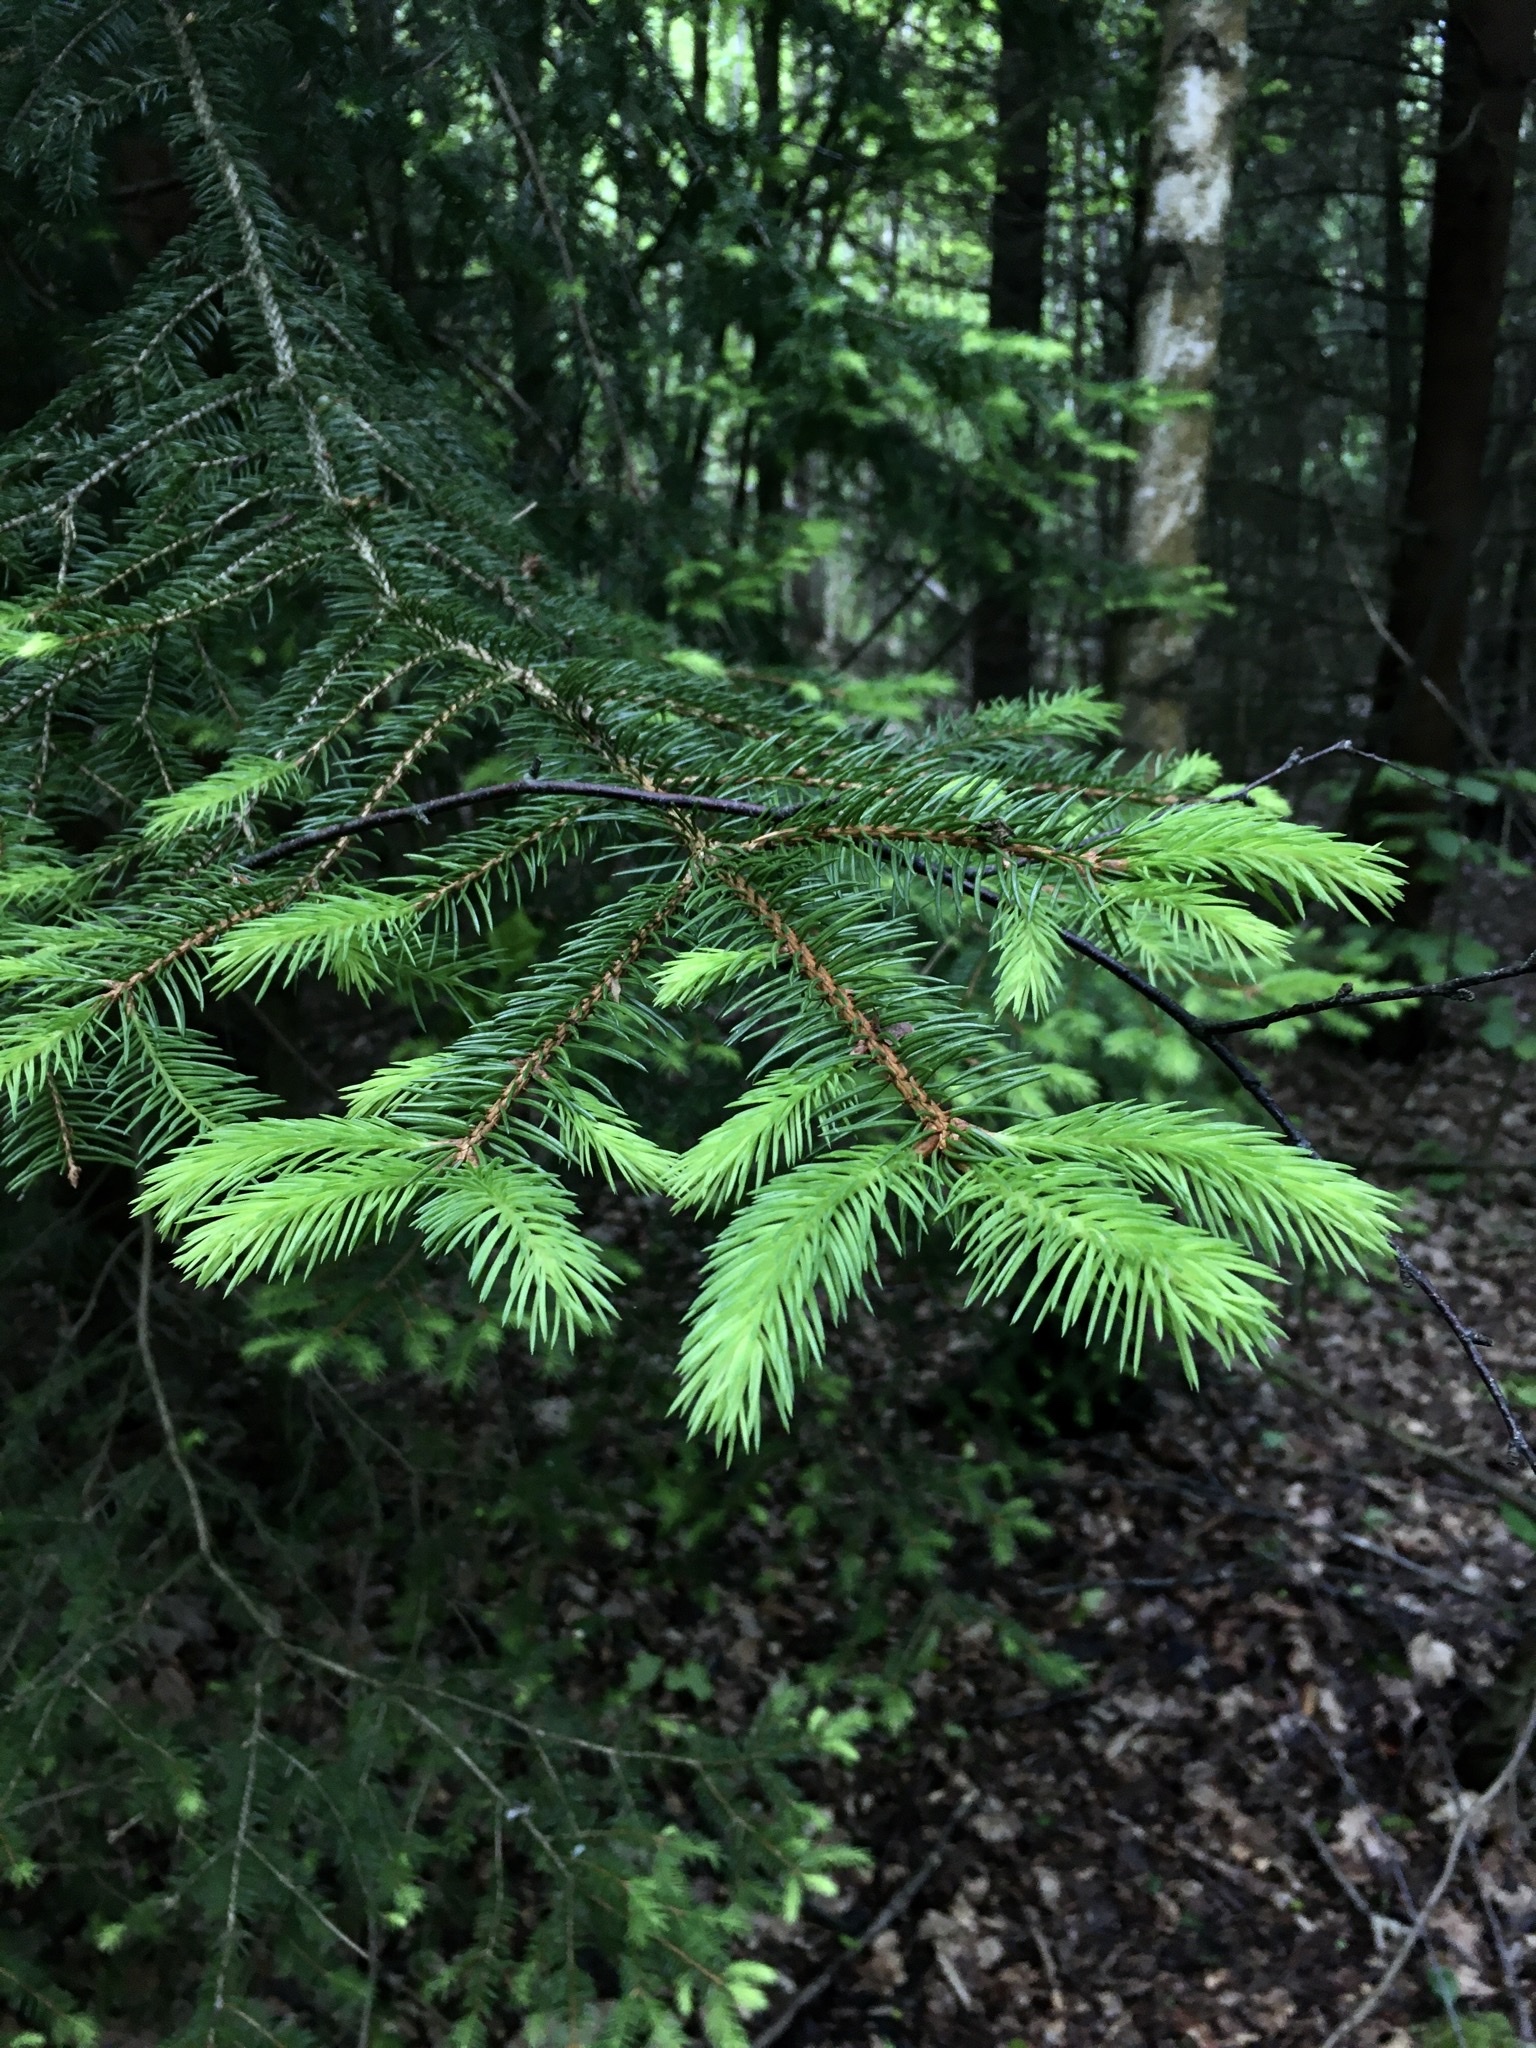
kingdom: Plantae
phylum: Tracheophyta
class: Pinopsida
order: Pinales
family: Pinaceae
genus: Picea
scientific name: Picea abies
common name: Norway spruce
